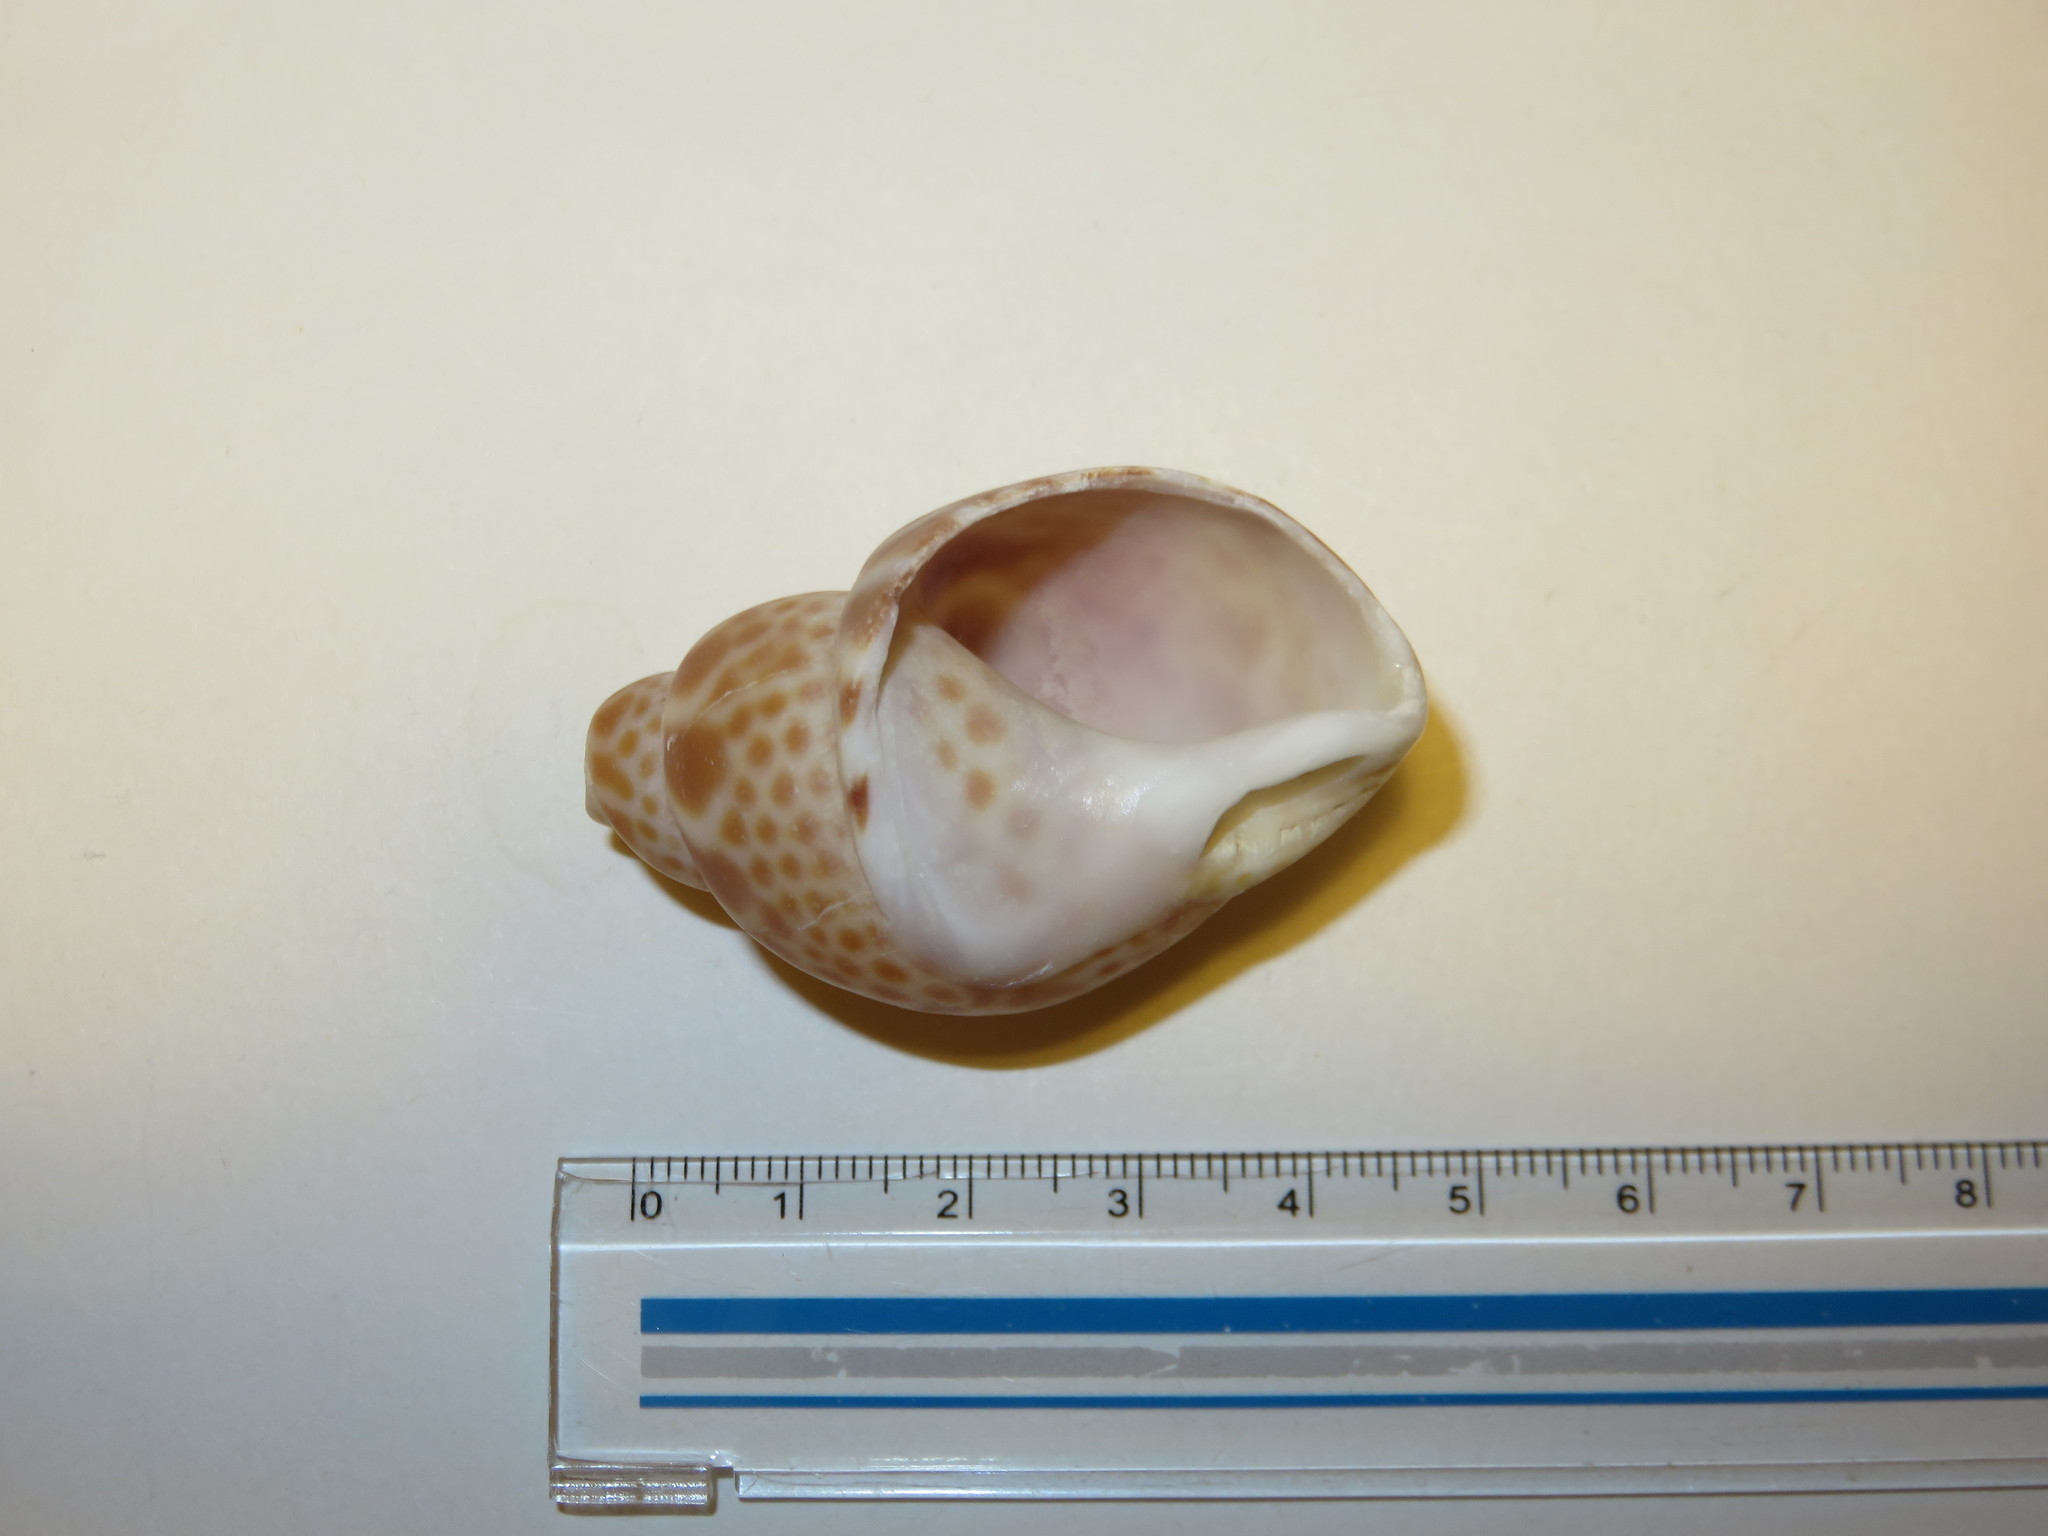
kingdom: Animalia
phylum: Mollusca
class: Gastropoda
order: Neogastropoda
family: Babyloniidae
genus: Babylonia
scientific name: Babylonia japonica
